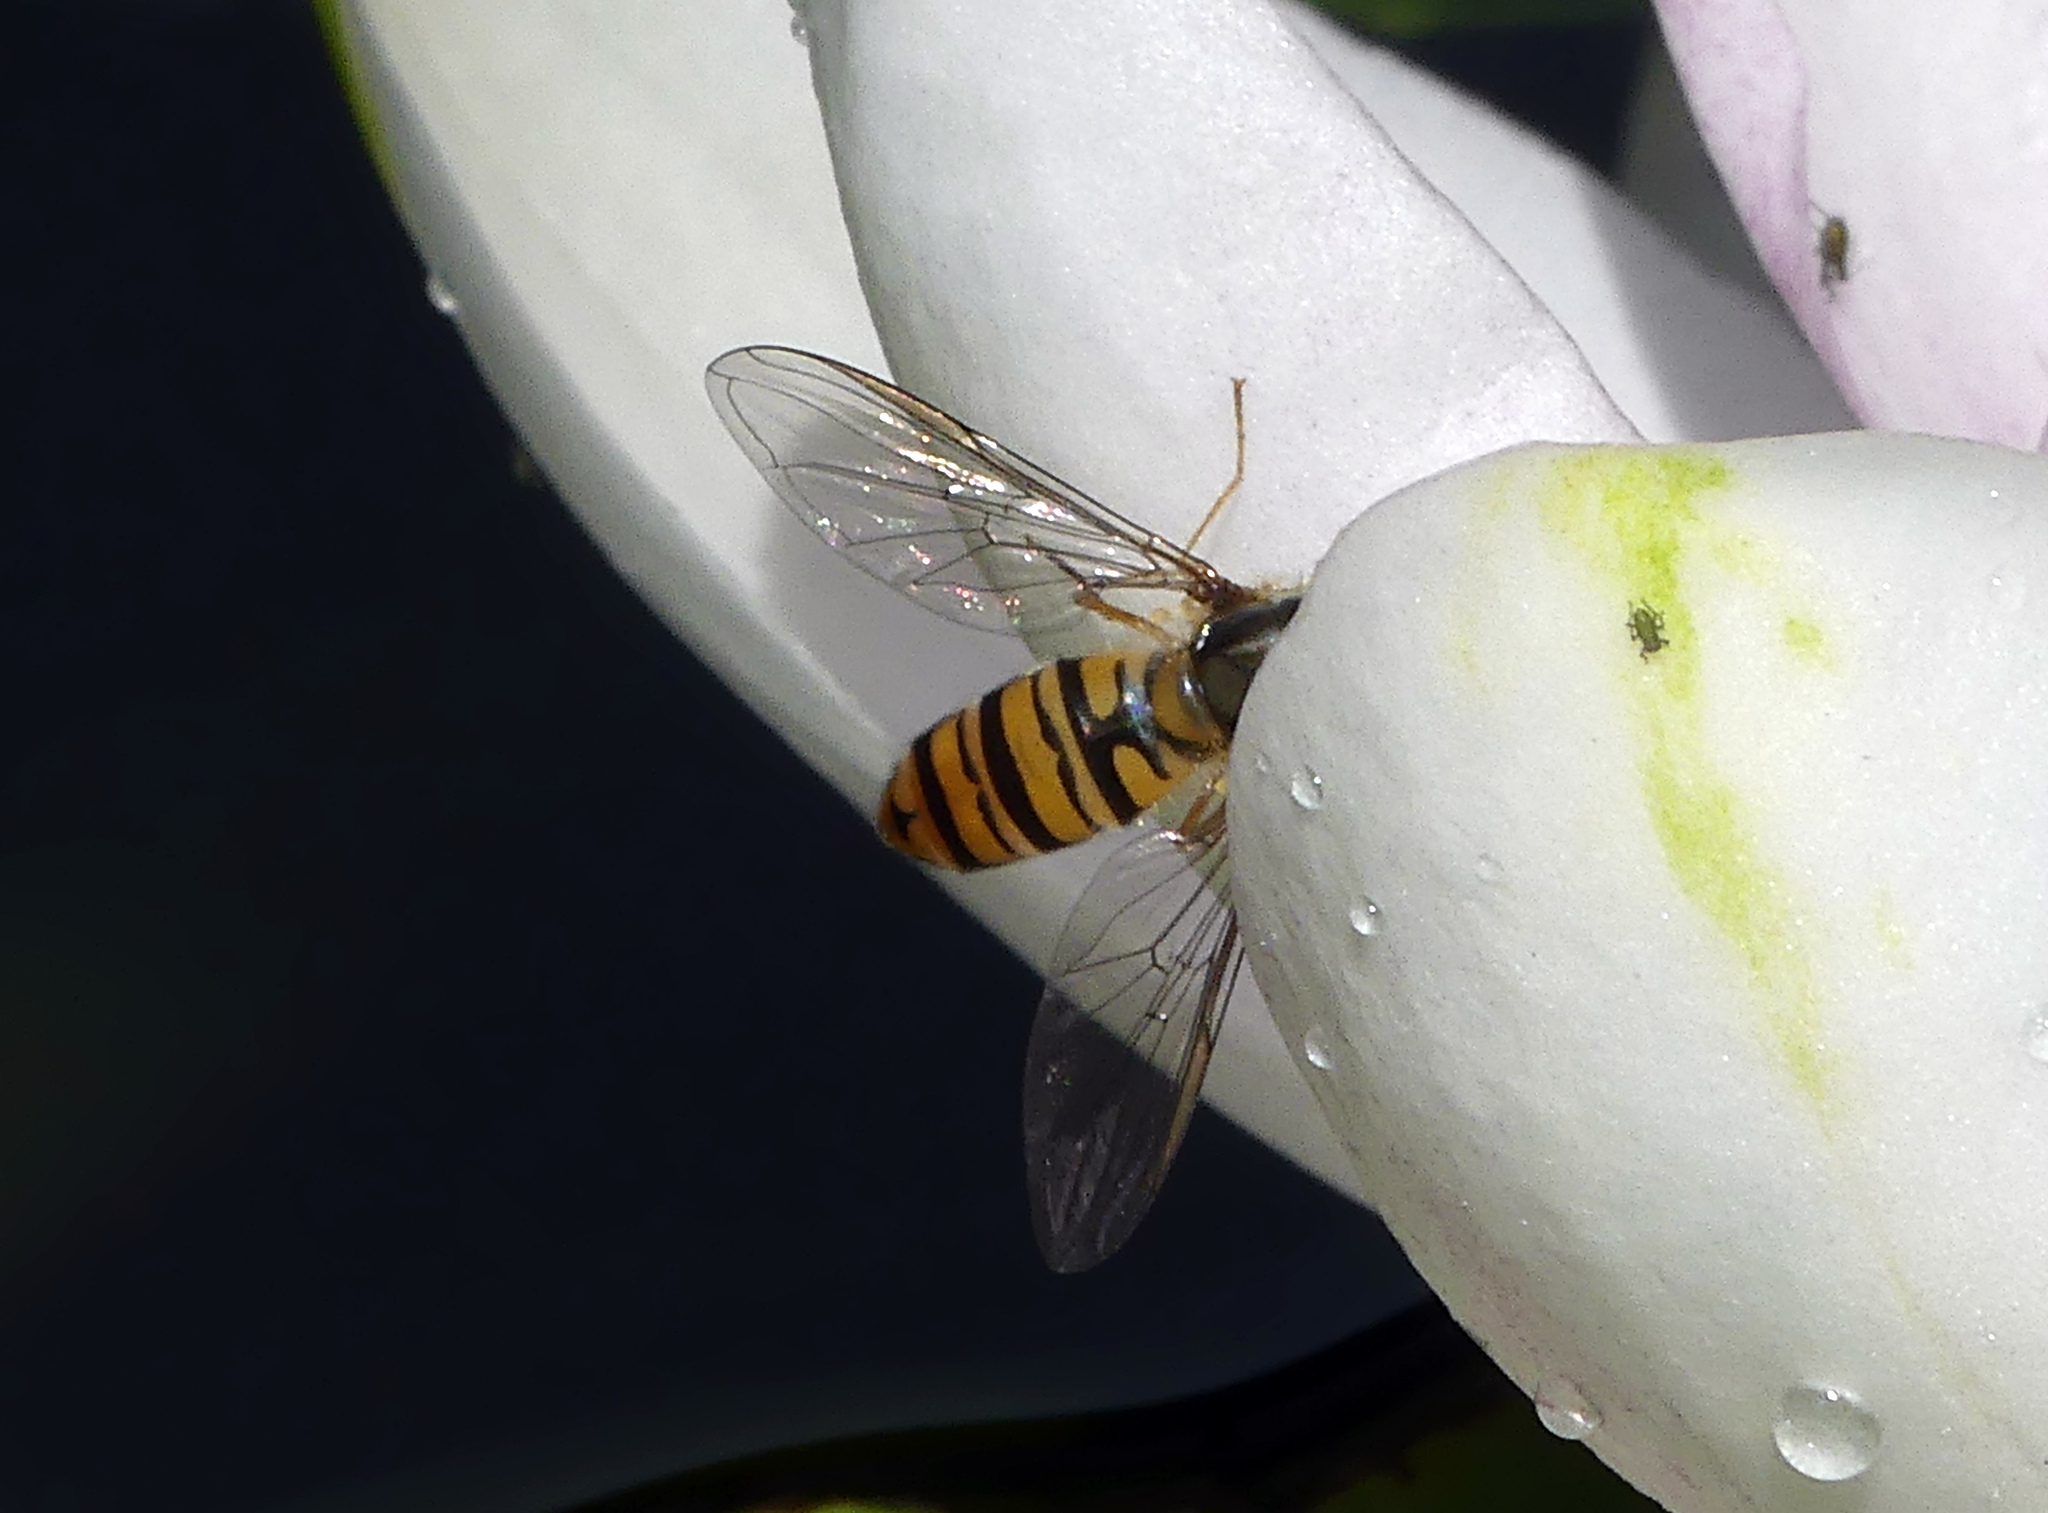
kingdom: Animalia
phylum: Arthropoda
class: Insecta
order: Diptera
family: Syrphidae
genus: Episyrphus
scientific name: Episyrphus balteatus
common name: Marmalade hoverfly
